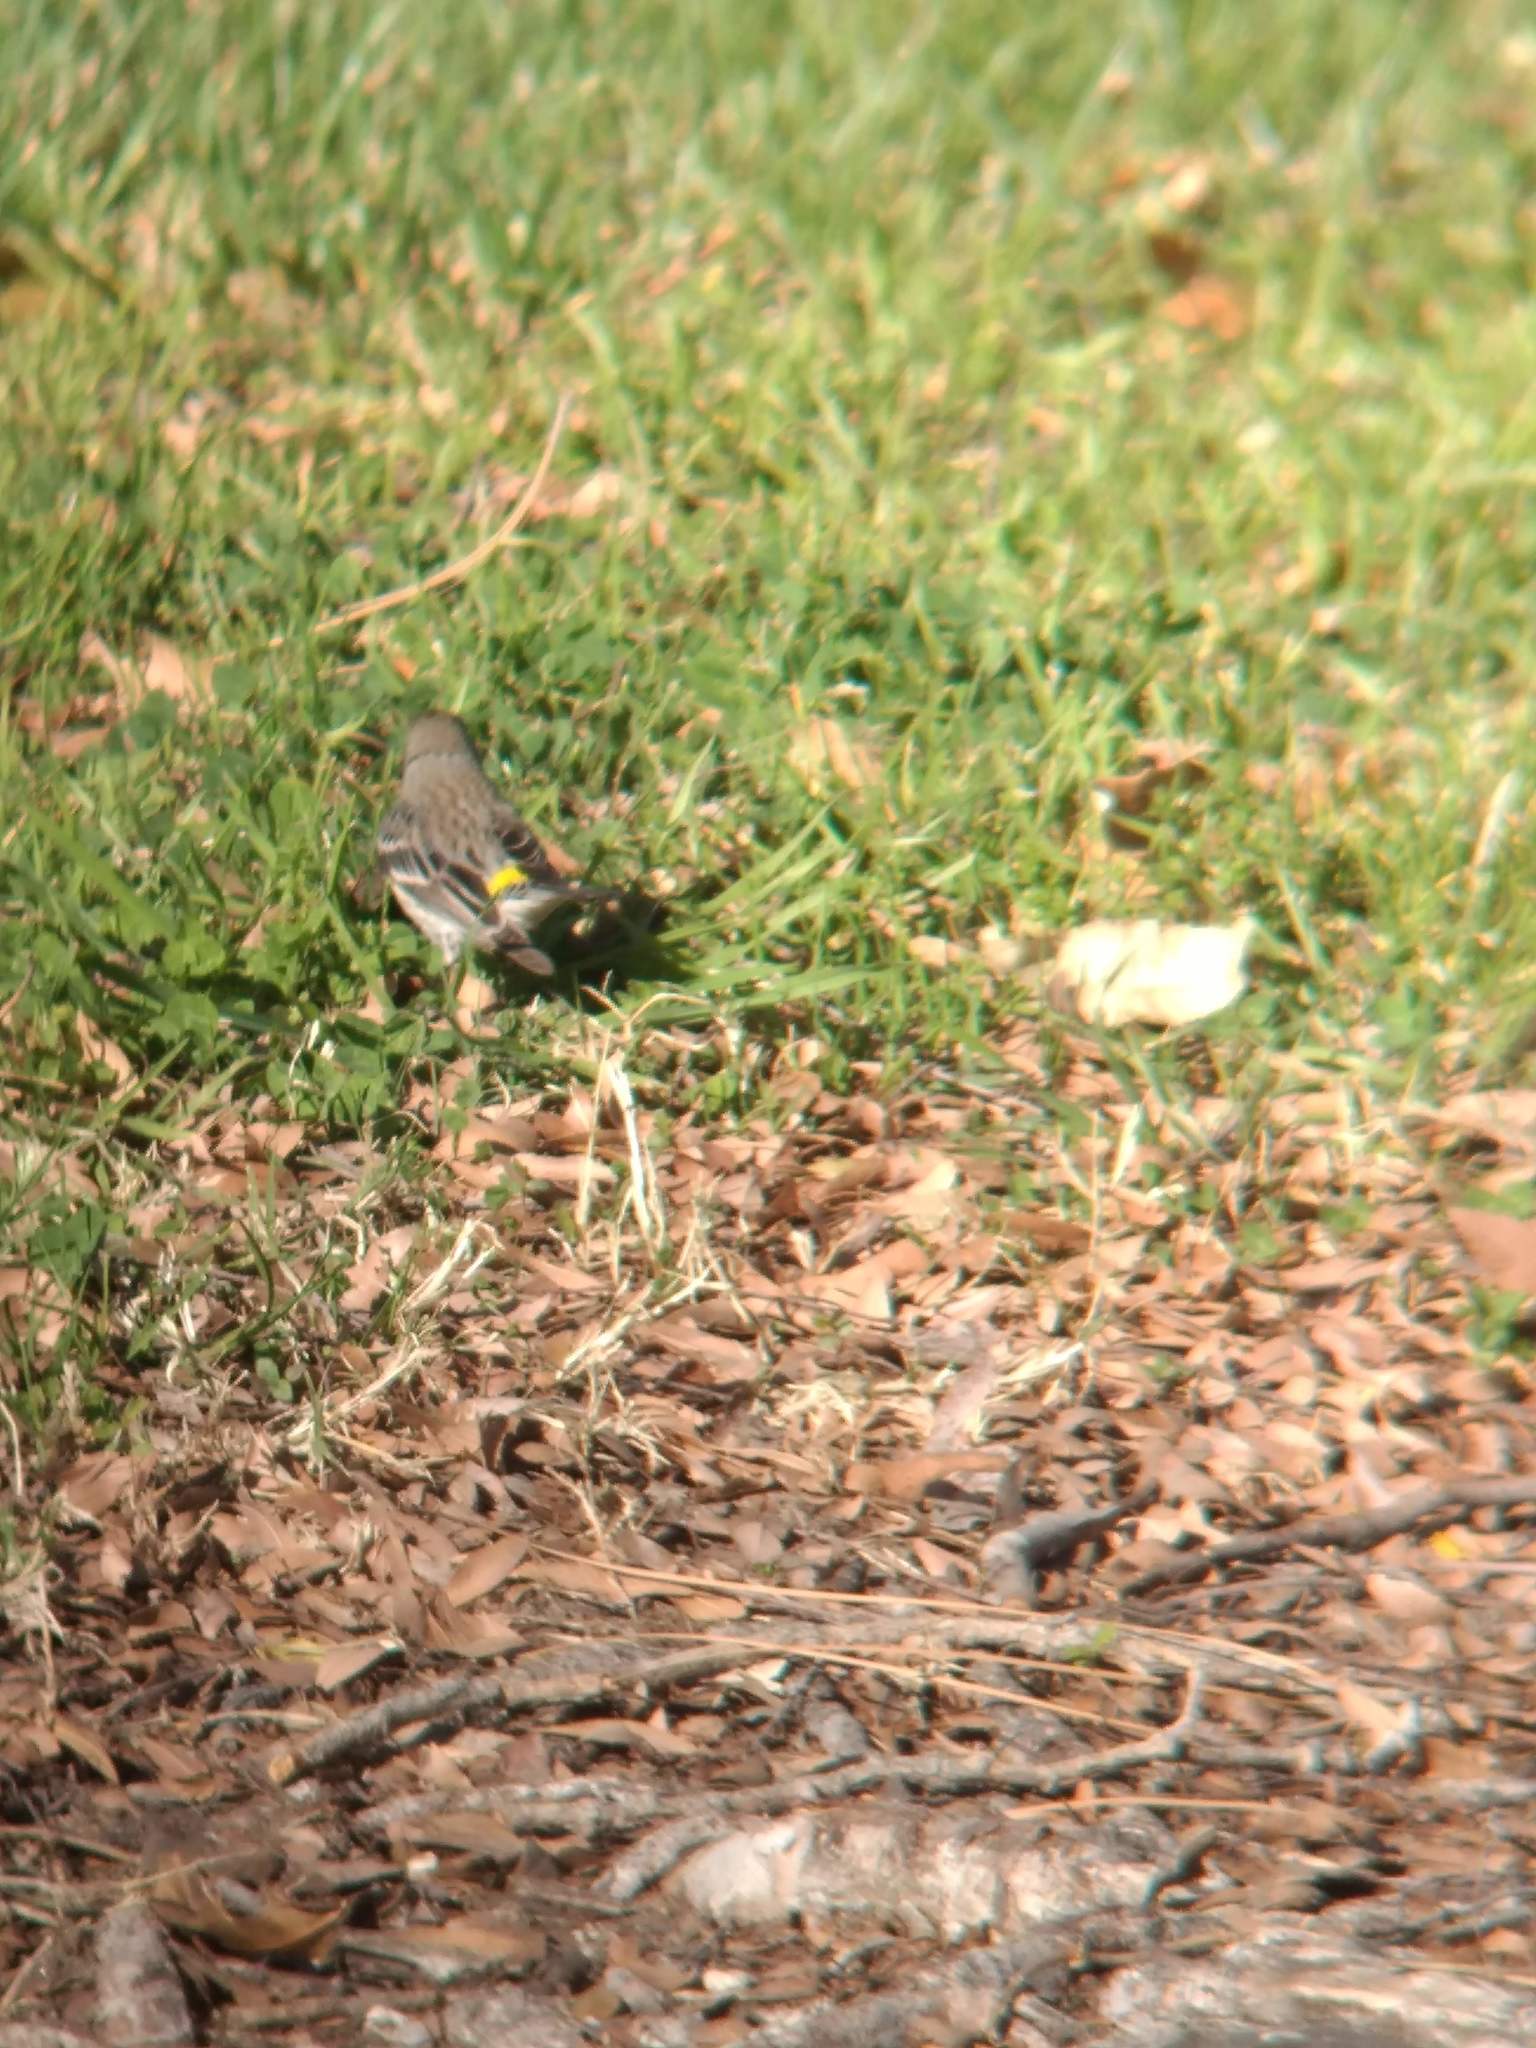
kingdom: Animalia
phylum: Chordata
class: Aves
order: Passeriformes
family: Parulidae
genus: Setophaga
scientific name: Setophaga coronata
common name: Myrtle warbler
